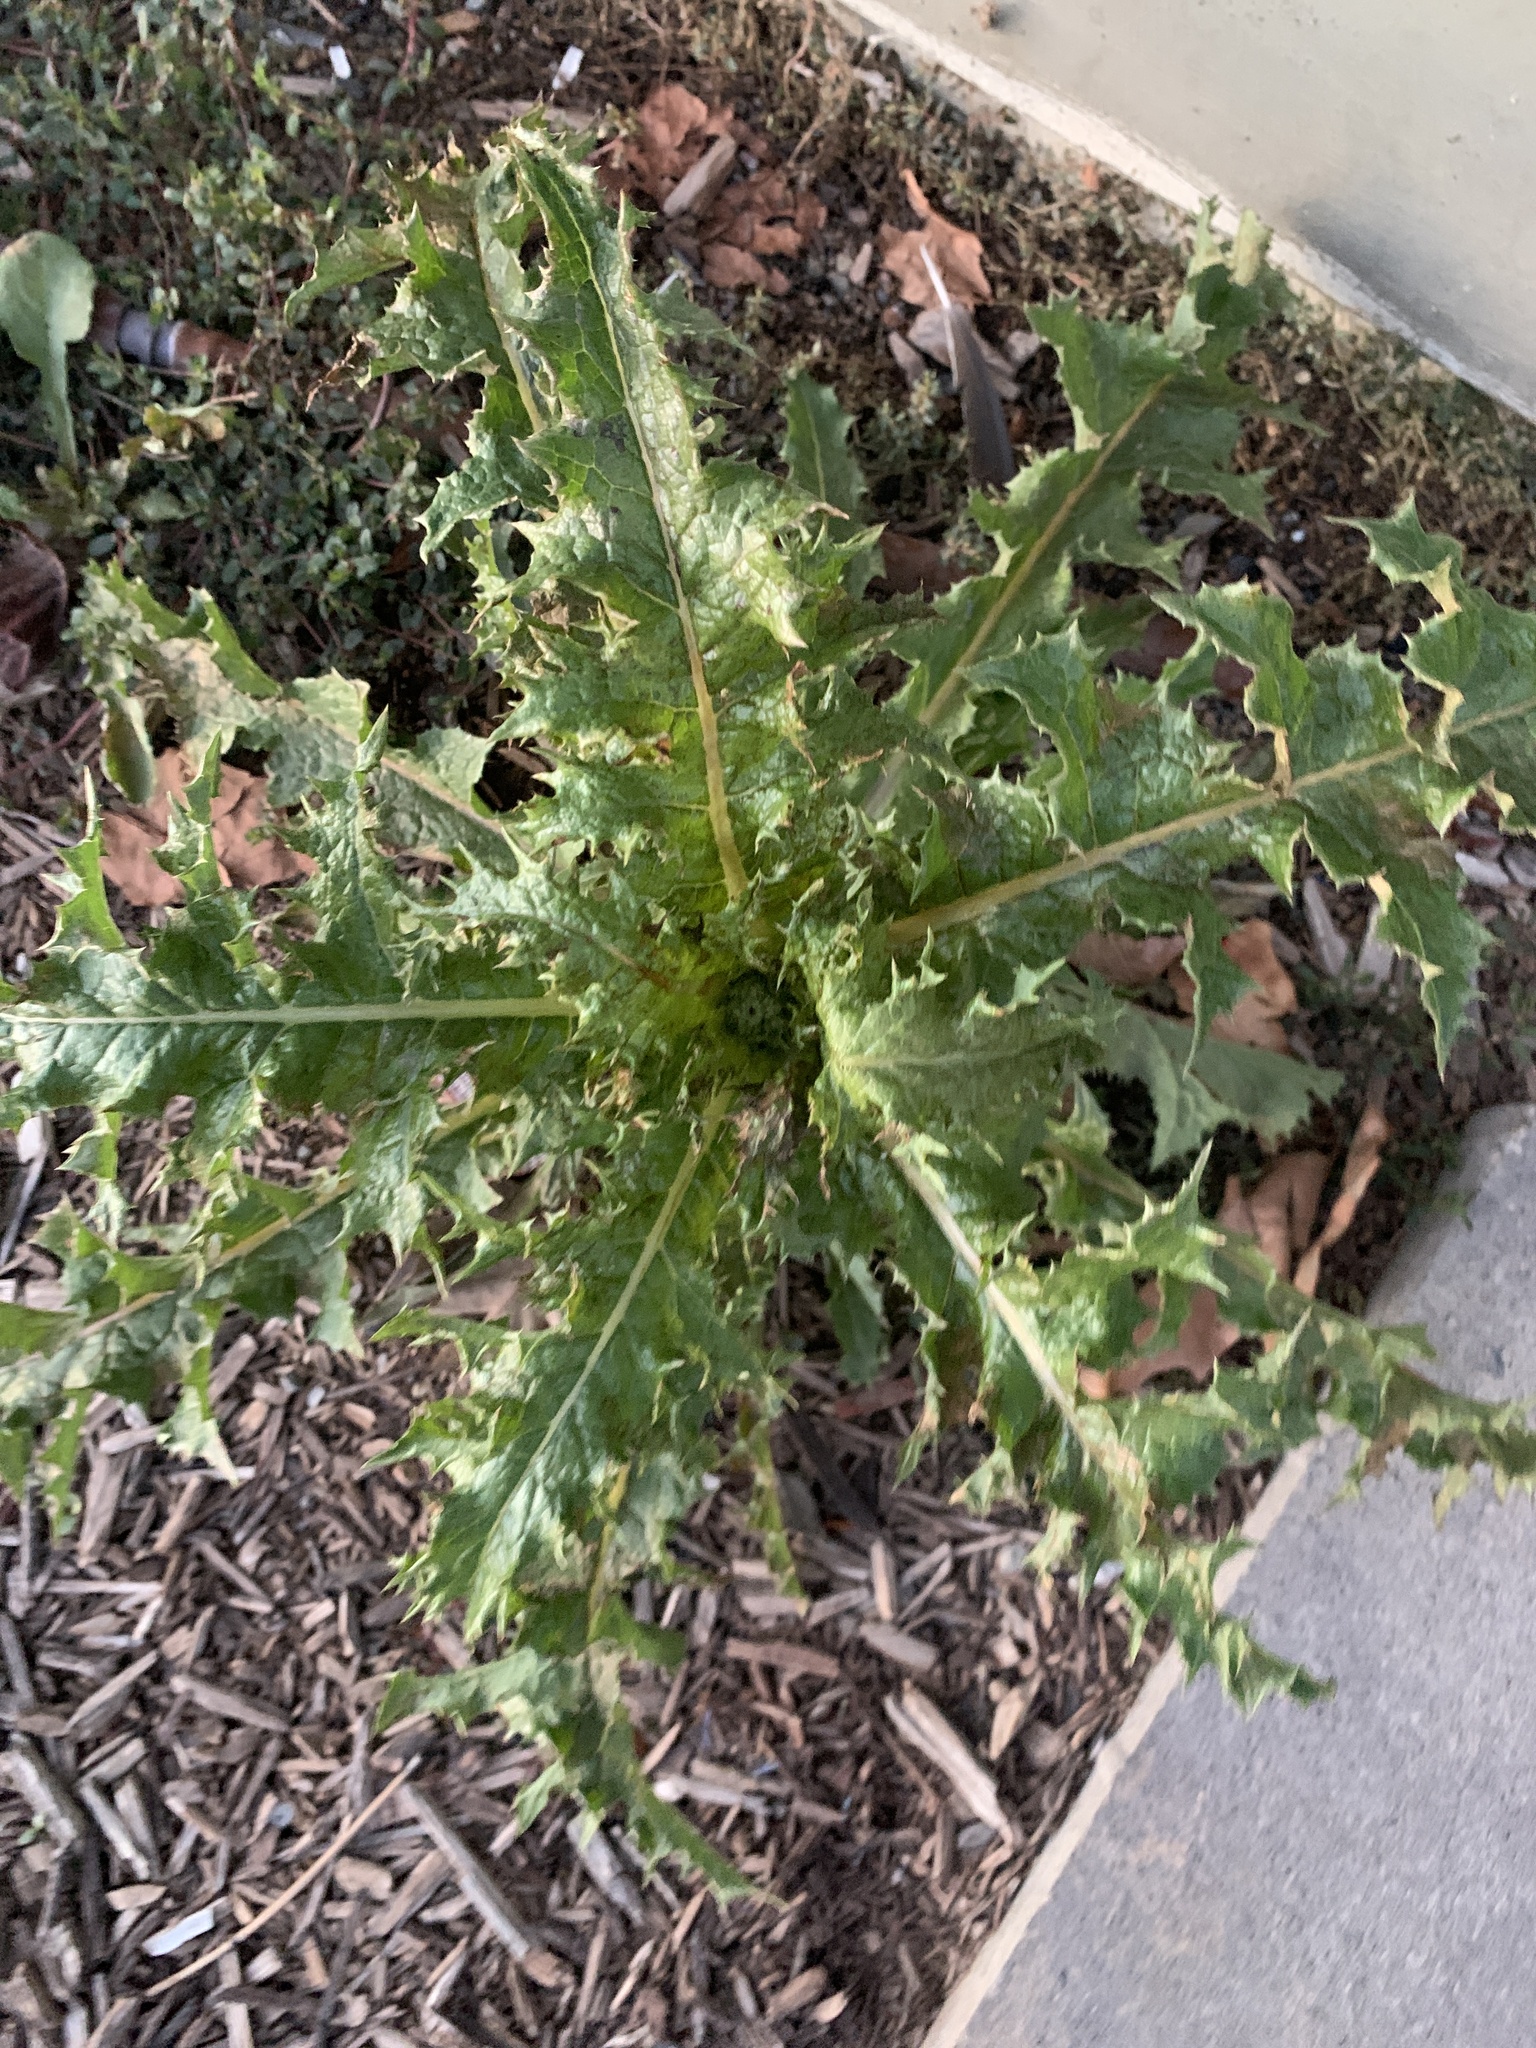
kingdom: Plantae
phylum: Tracheophyta
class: Magnoliopsida
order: Asterales
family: Asteraceae
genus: Sonchus
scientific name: Sonchus asper
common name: Prickly sow-thistle
